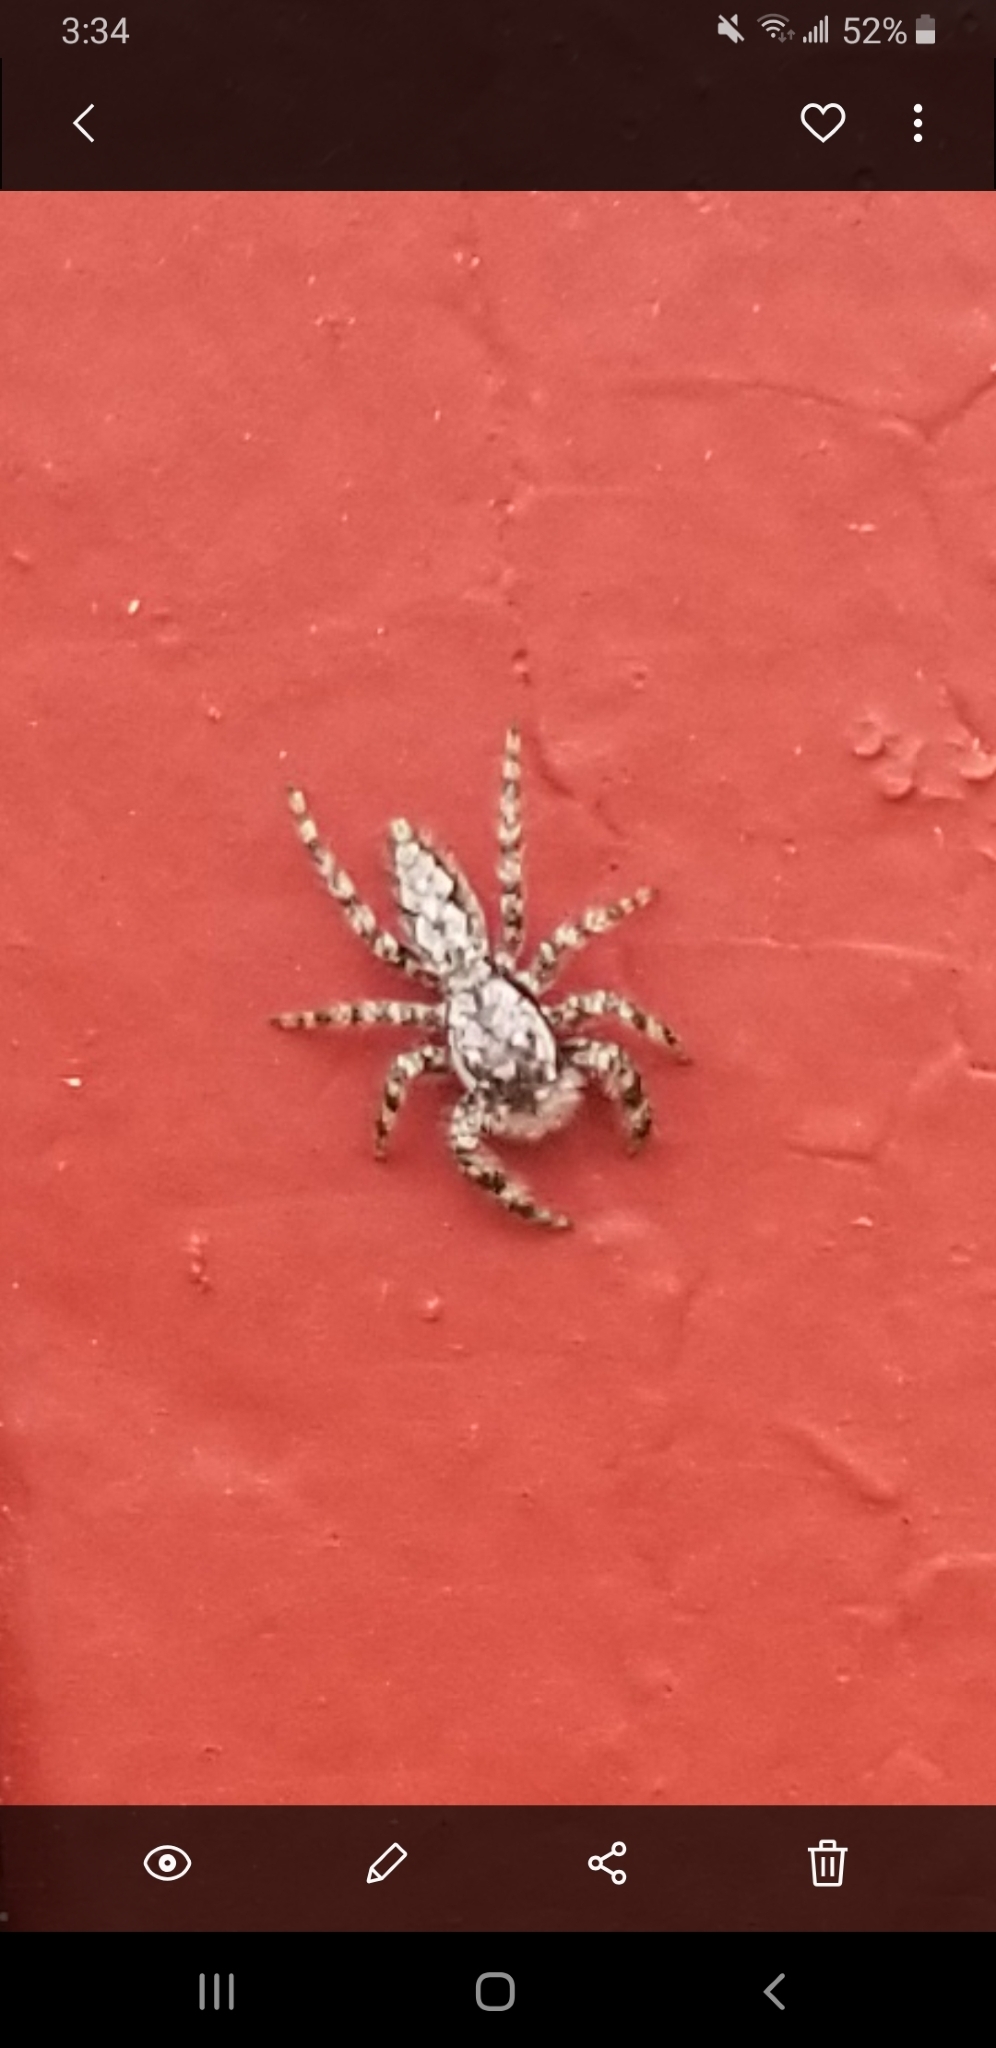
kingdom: Animalia
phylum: Arthropoda
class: Arachnida
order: Araneae
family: Salticidae
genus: Platycryptus
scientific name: Platycryptus undatus
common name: Tan jumping spider
